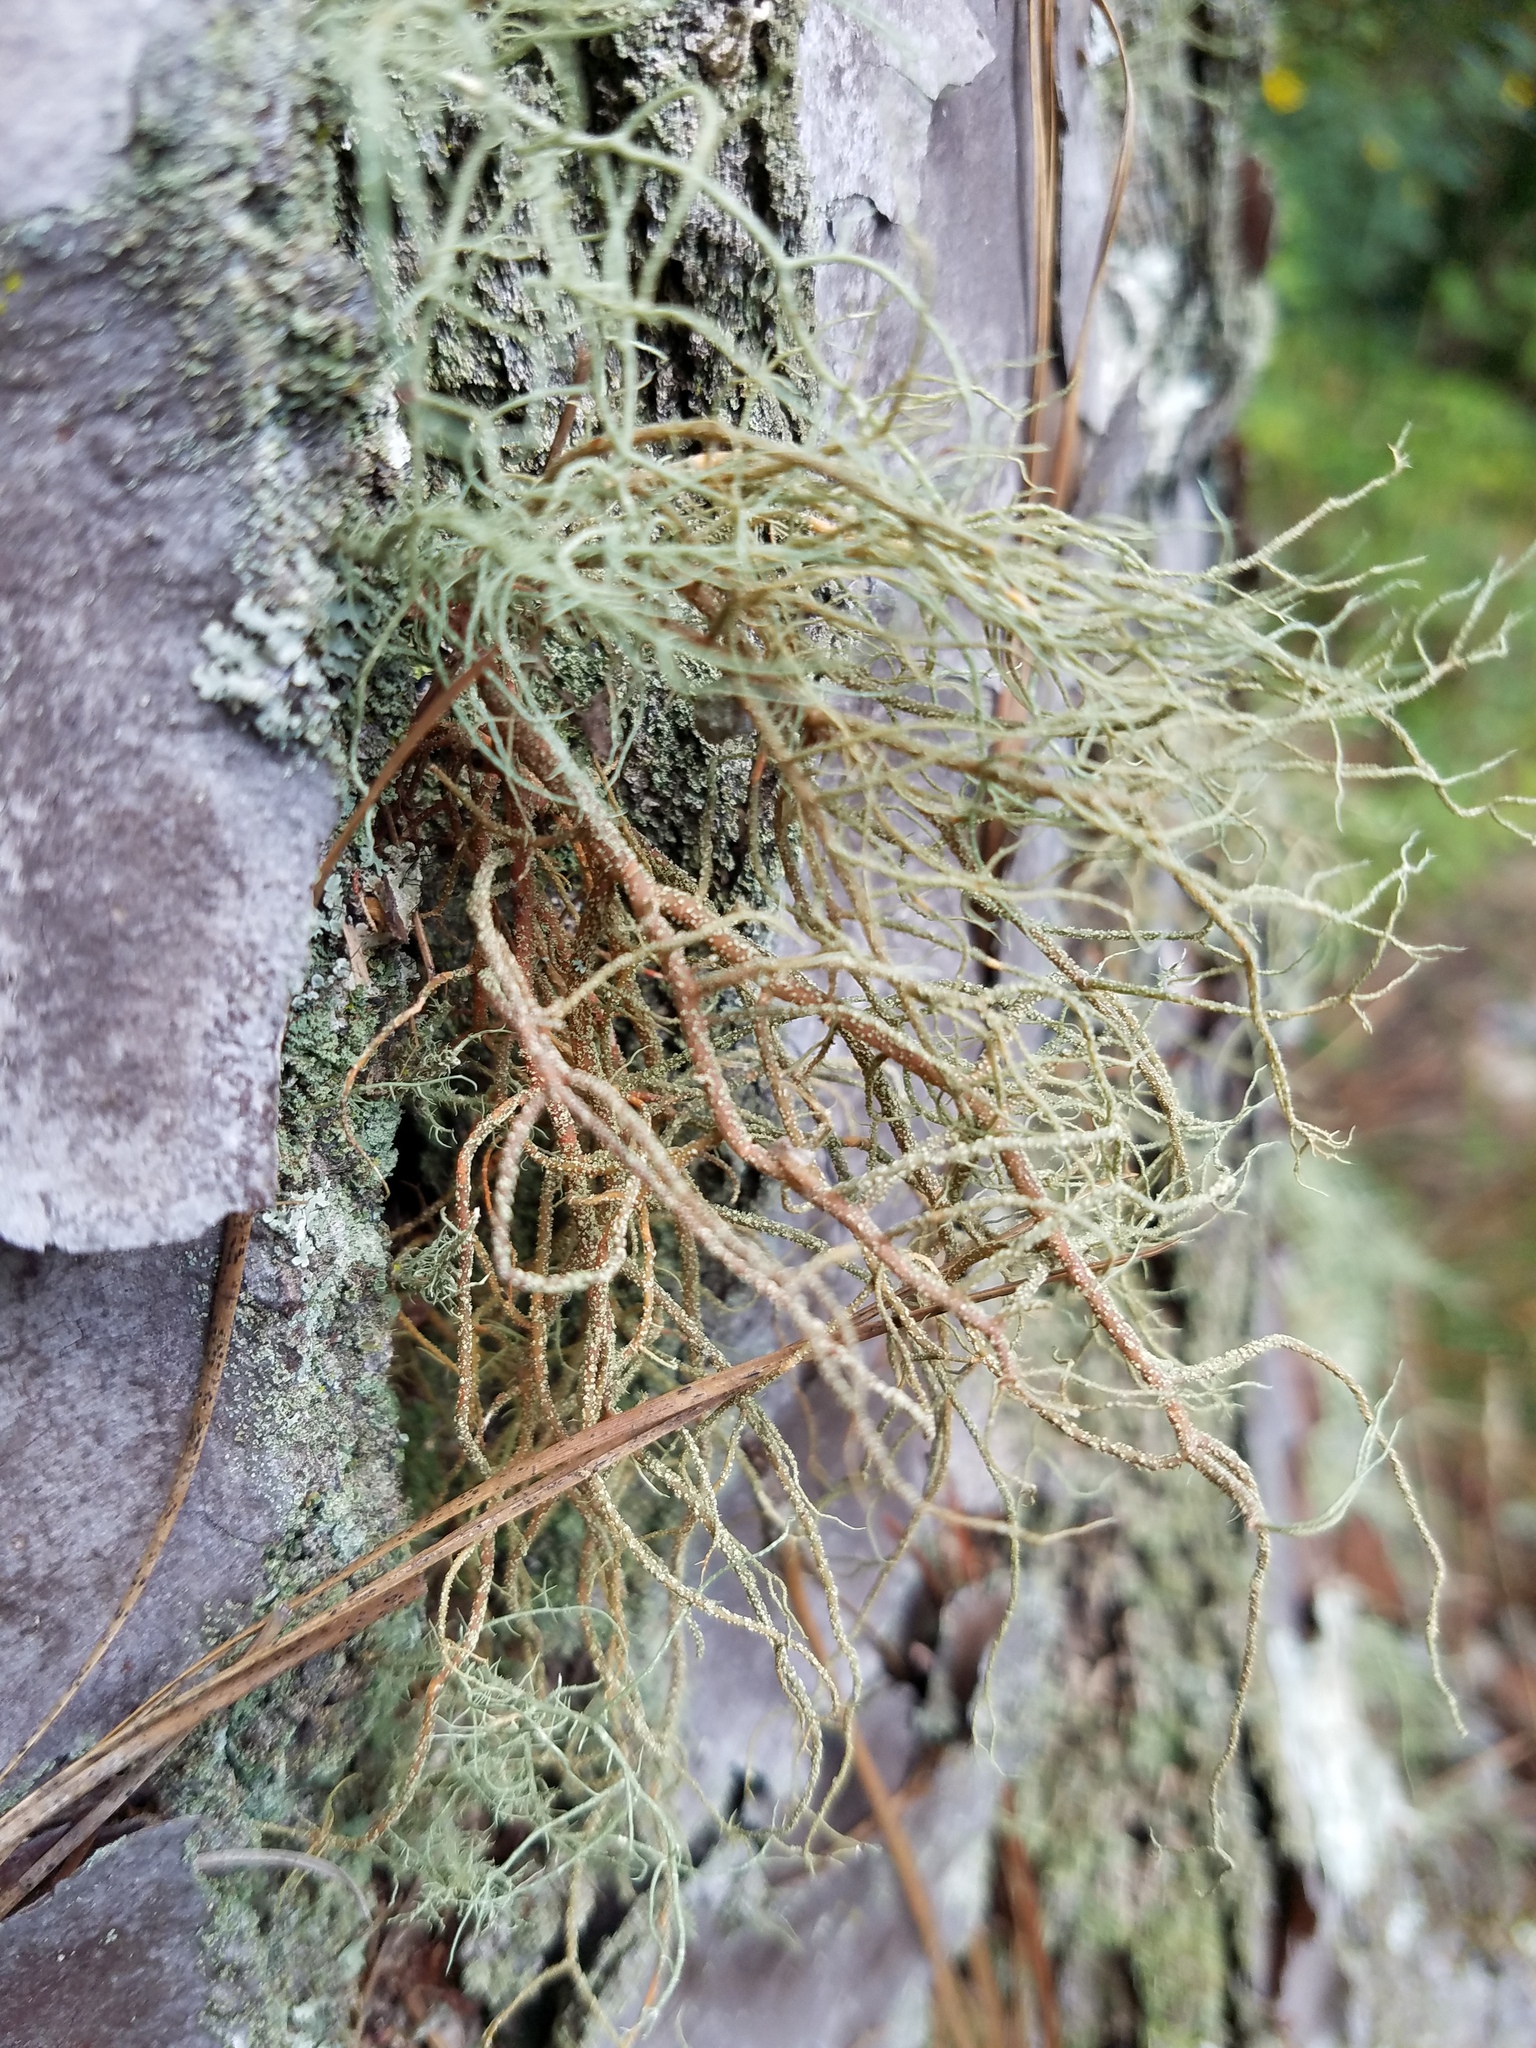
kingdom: Fungi
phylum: Ascomycota
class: Lecanoromycetes
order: Lecanorales
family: Parmeliaceae
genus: Usnea
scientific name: Usnea rubicunda
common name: Red beard lichen
